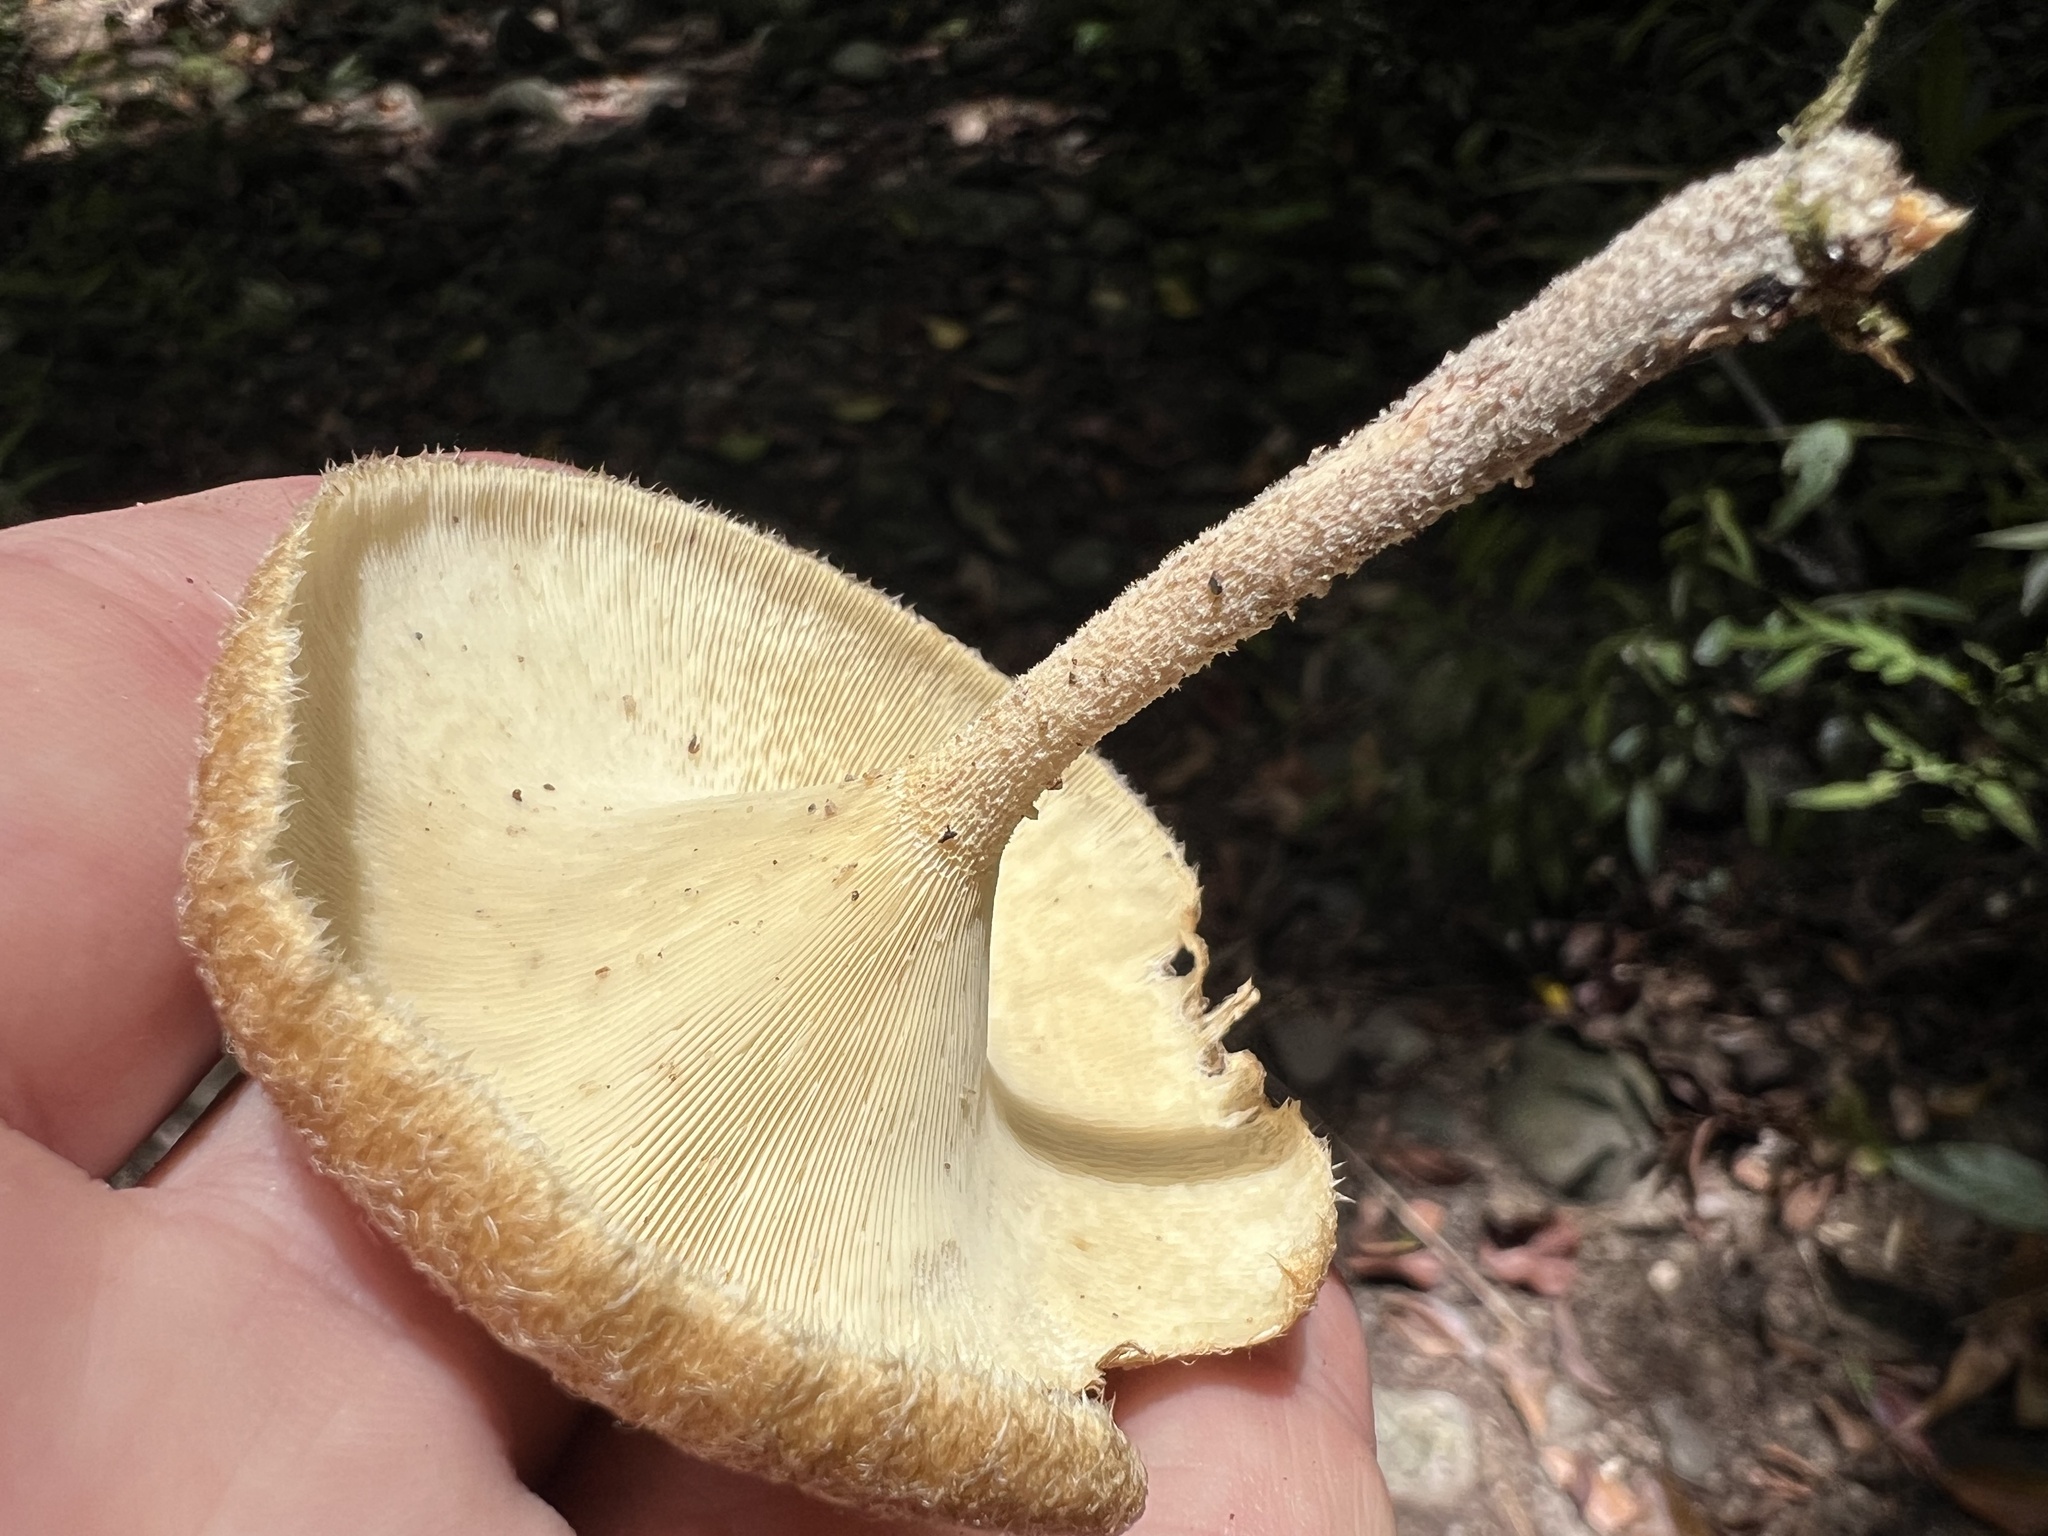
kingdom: Fungi
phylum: Basidiomycota
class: Agaricomycetes
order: Polyporales
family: Polyporaceae
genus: Lentinus
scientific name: Lentinus crinitus
